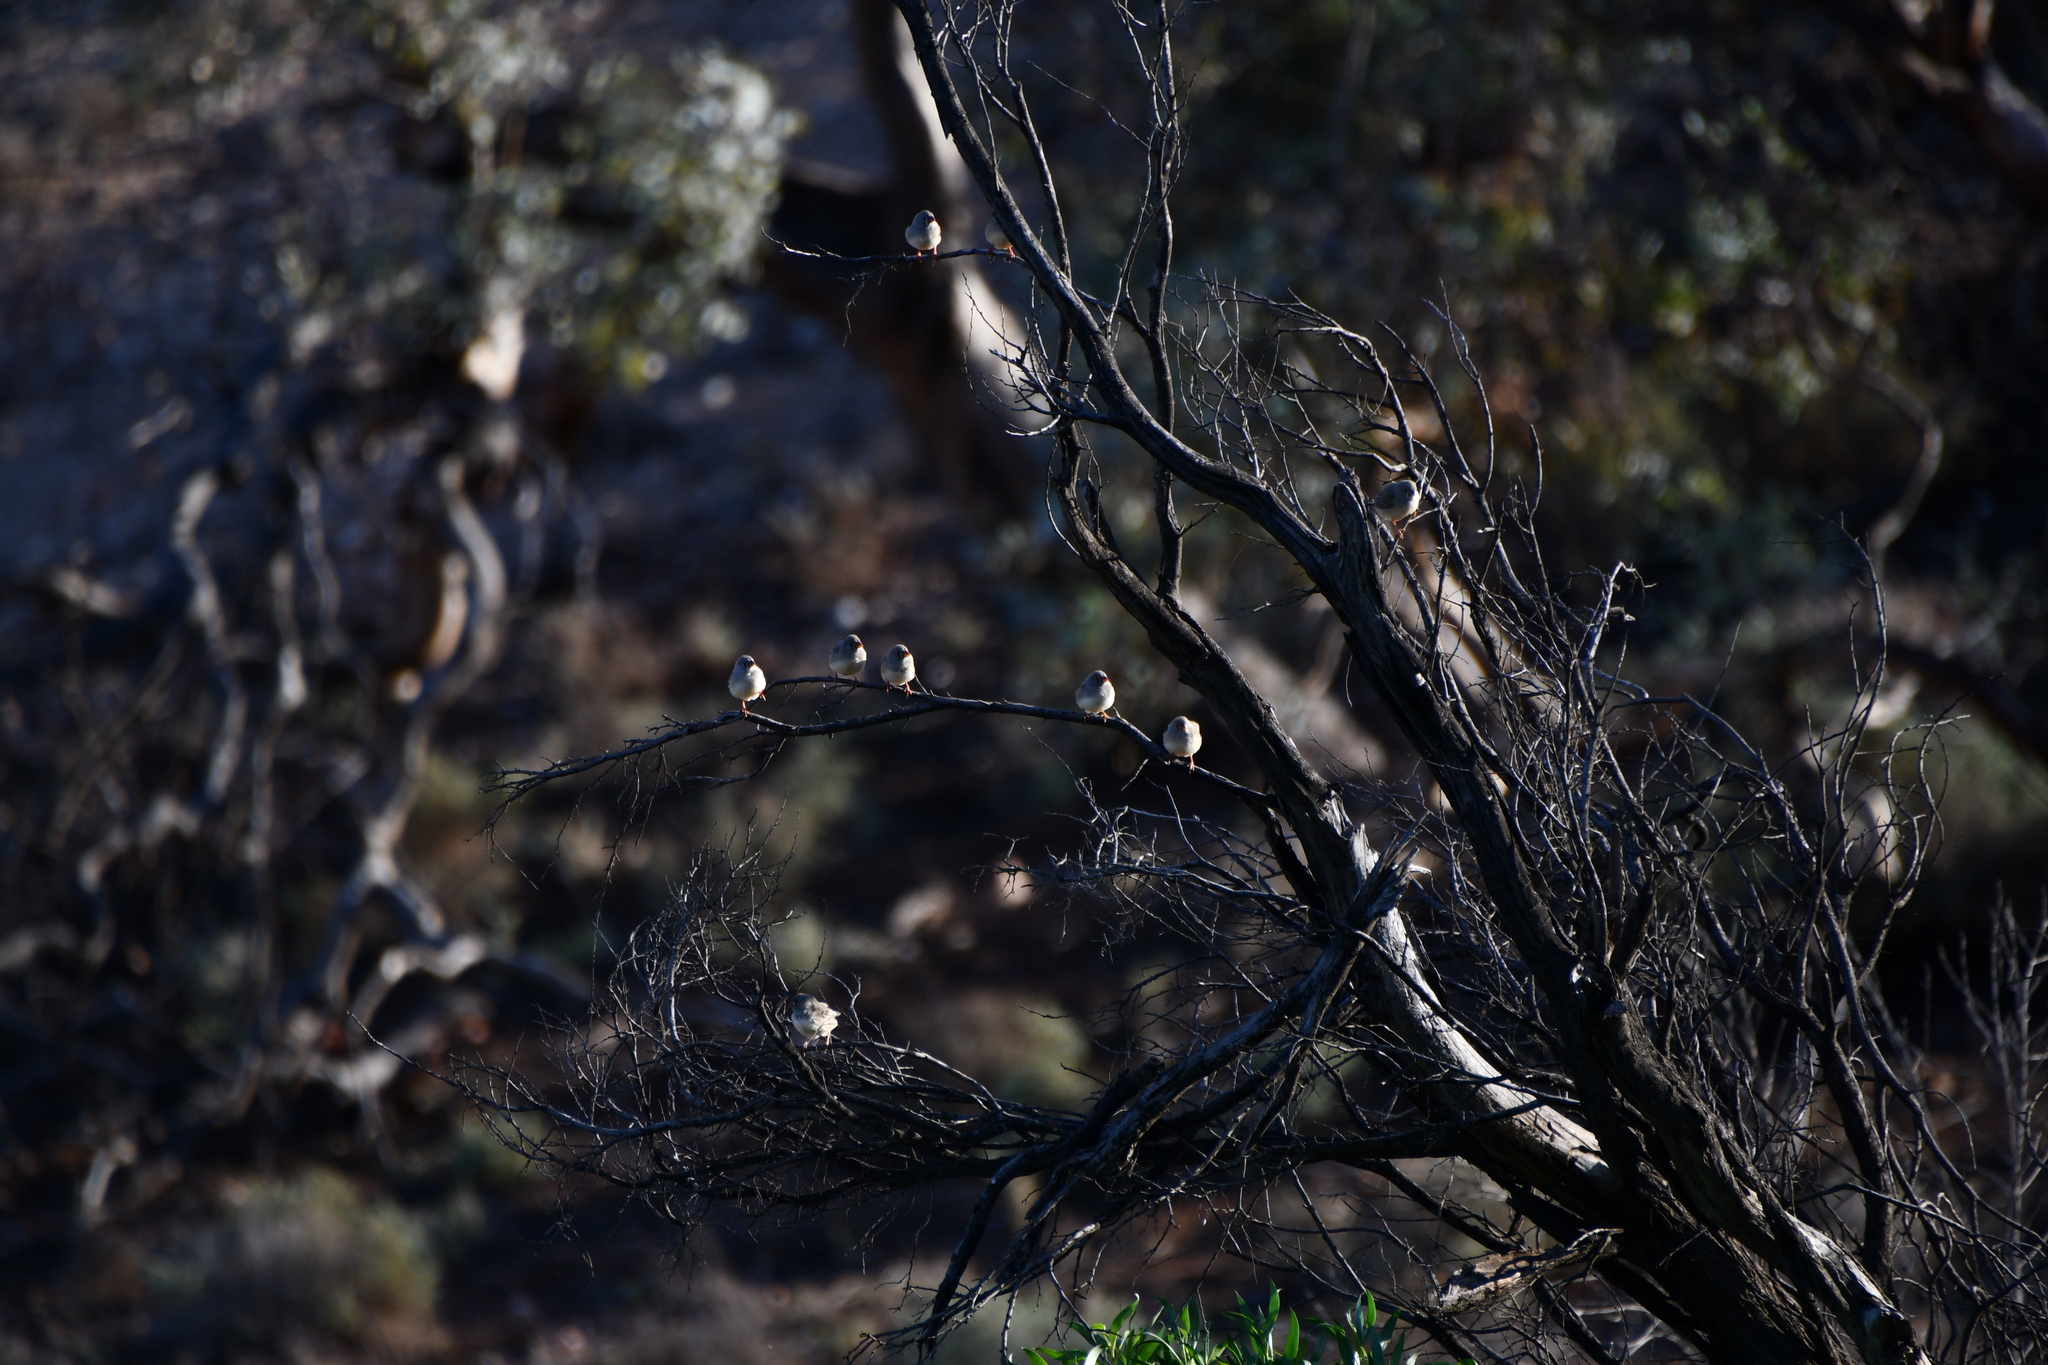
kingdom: Animalia
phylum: Chordata
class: Aves
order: Passeriformes
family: Estrildidae
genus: Taeniopygia
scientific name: Taeniopygia guttata
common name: Zebra finch
